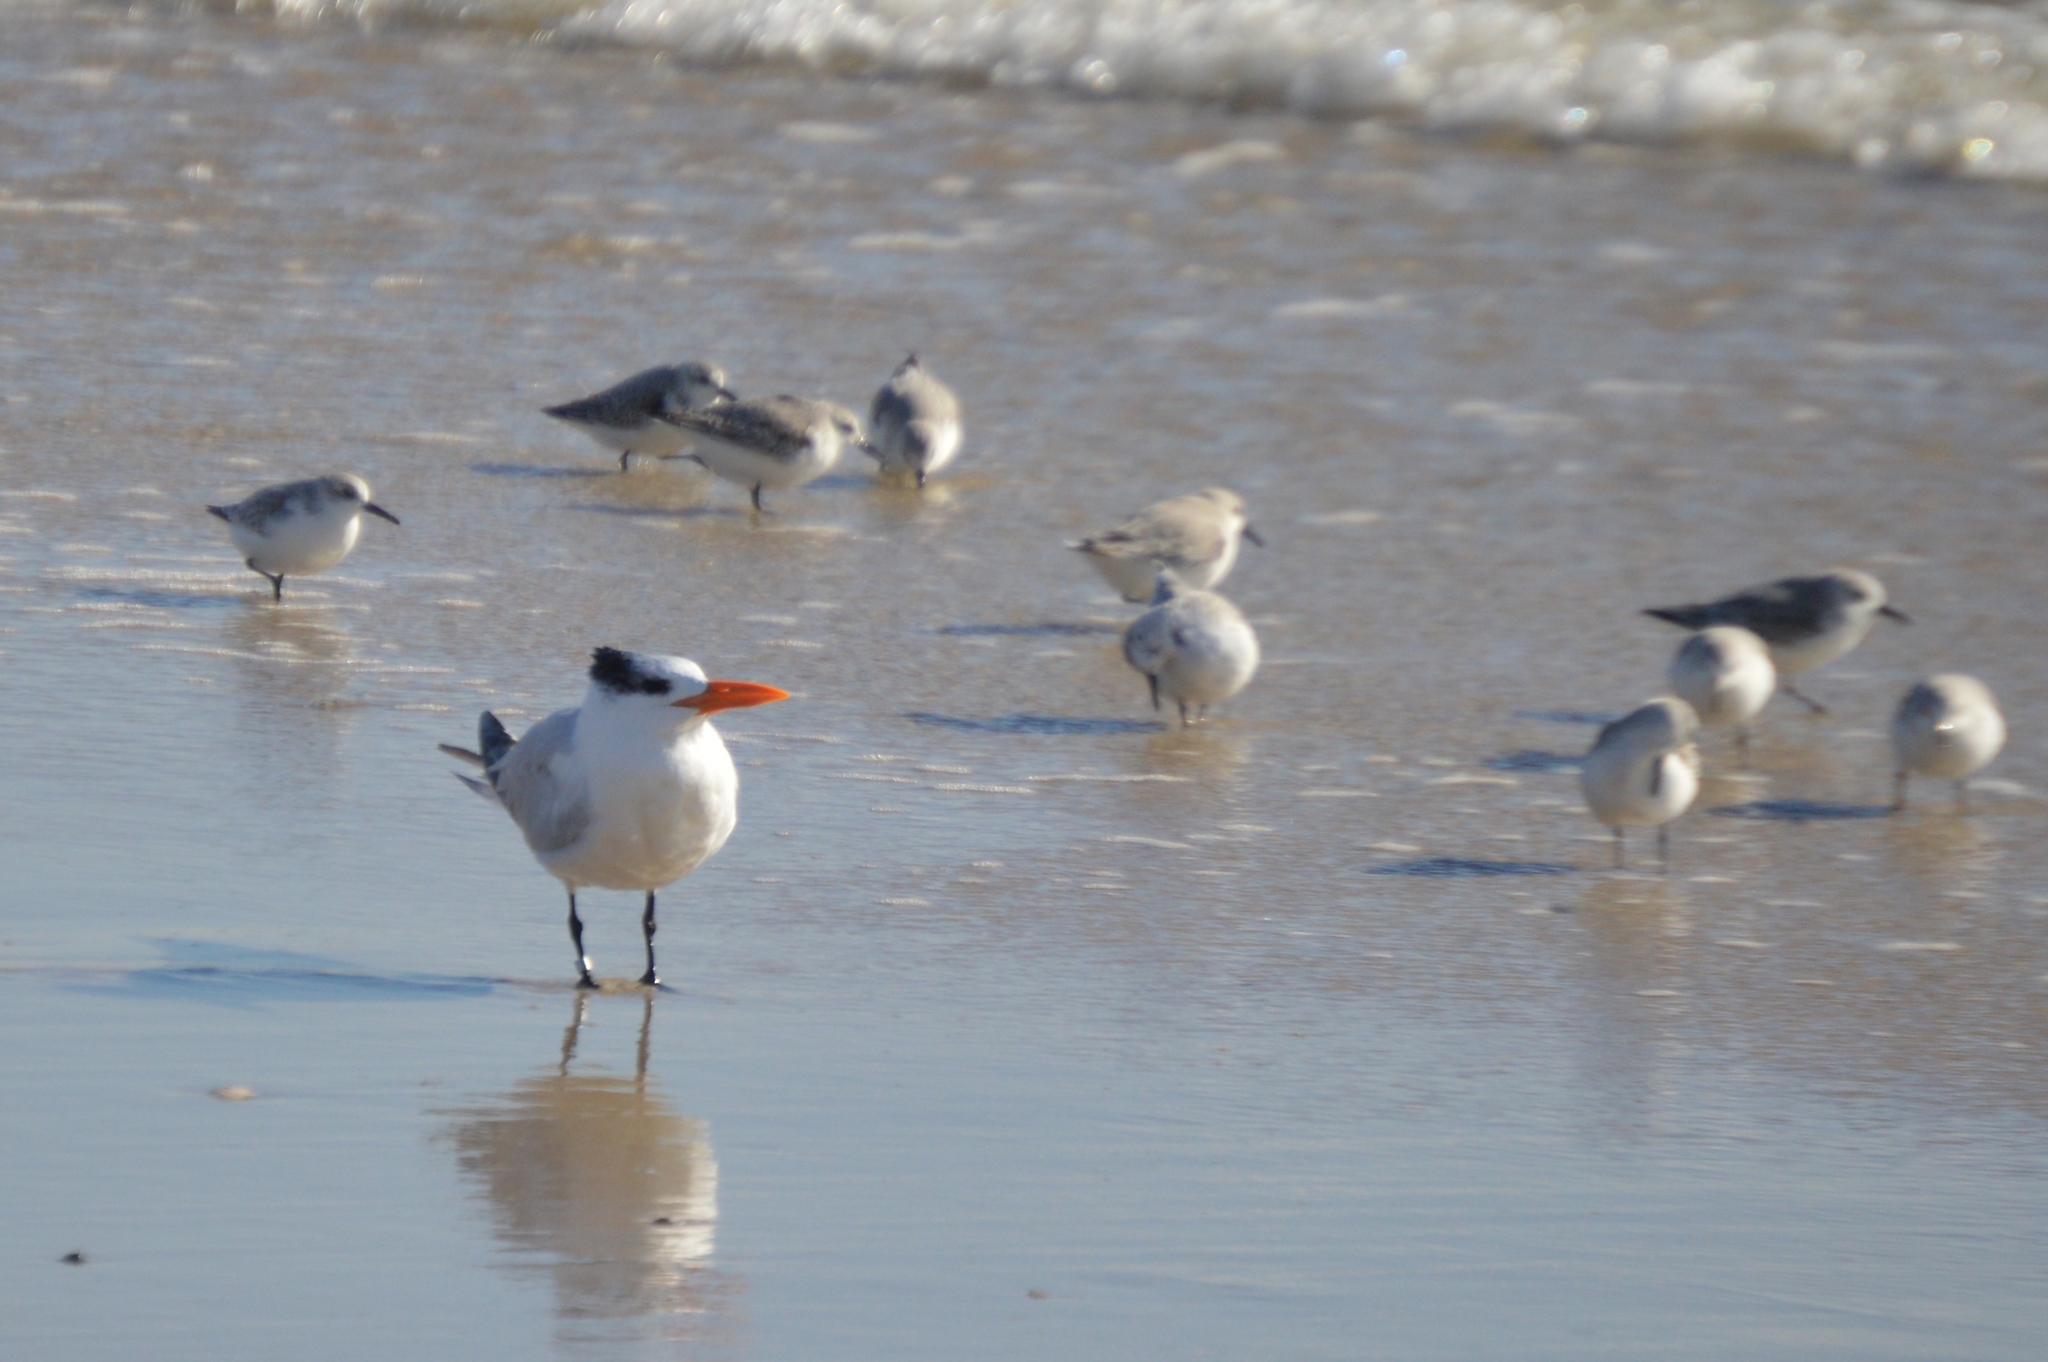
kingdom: Animalia
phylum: Chordata
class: Aves
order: Charadriiformes
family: Laridae
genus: Thalasseus
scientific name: Thalasseus maximus
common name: Royal tern
